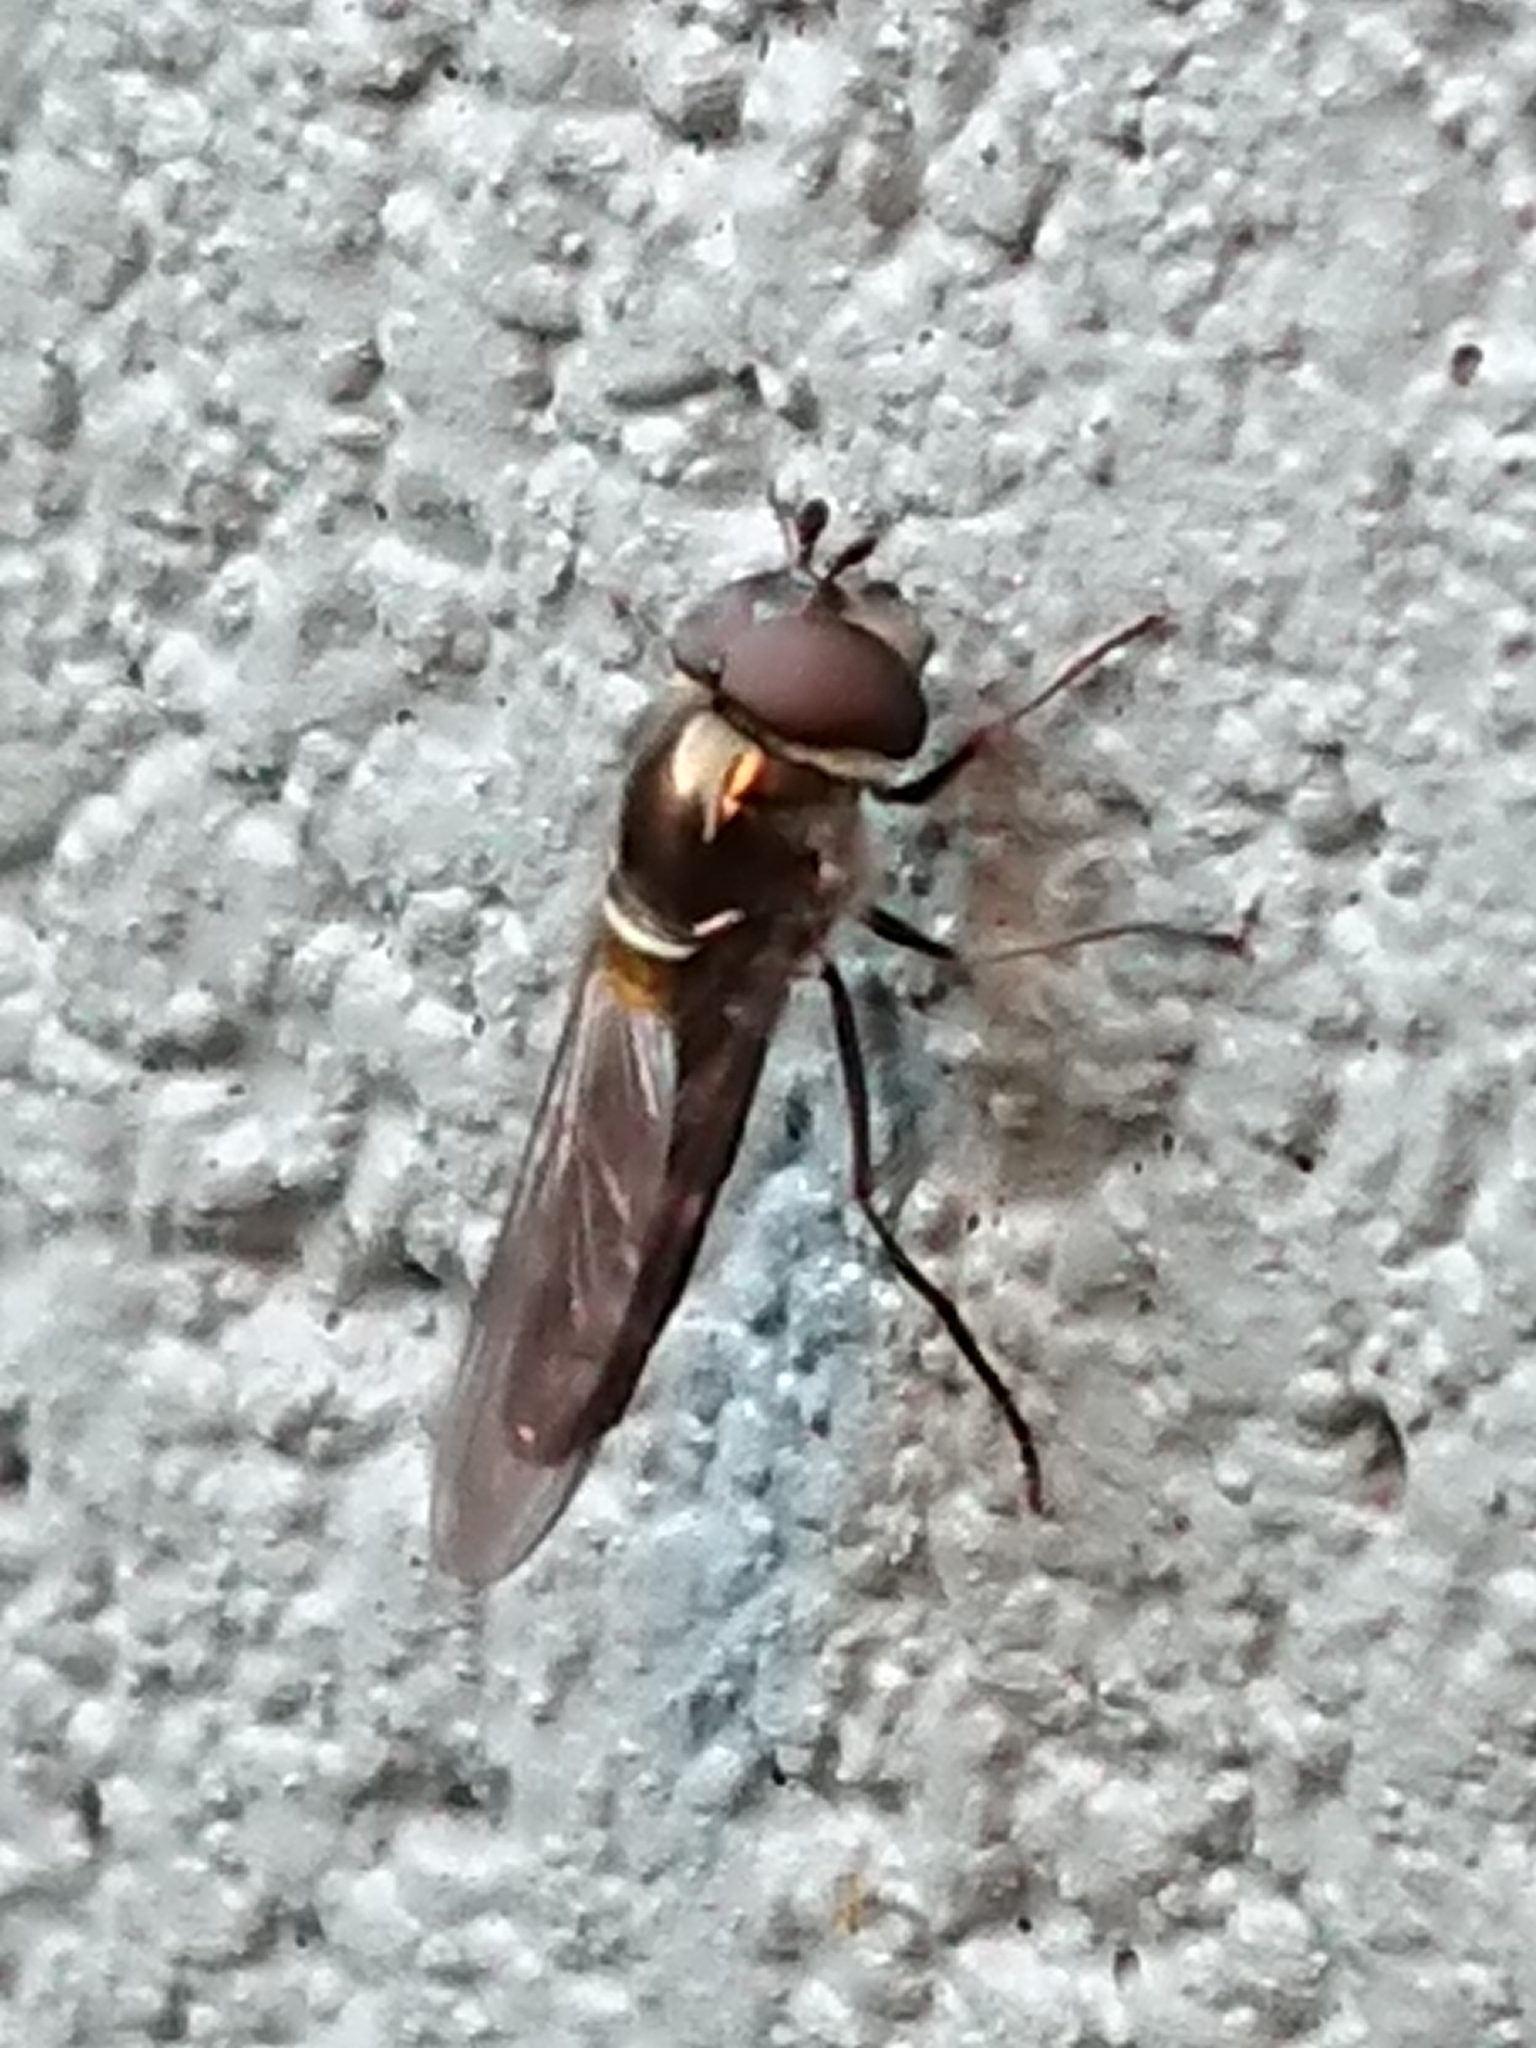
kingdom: Animalia
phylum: Arthropoda
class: Insecta
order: Diptera
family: Syrphidae
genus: Melangyna
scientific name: Melangyna novaezelandiae
